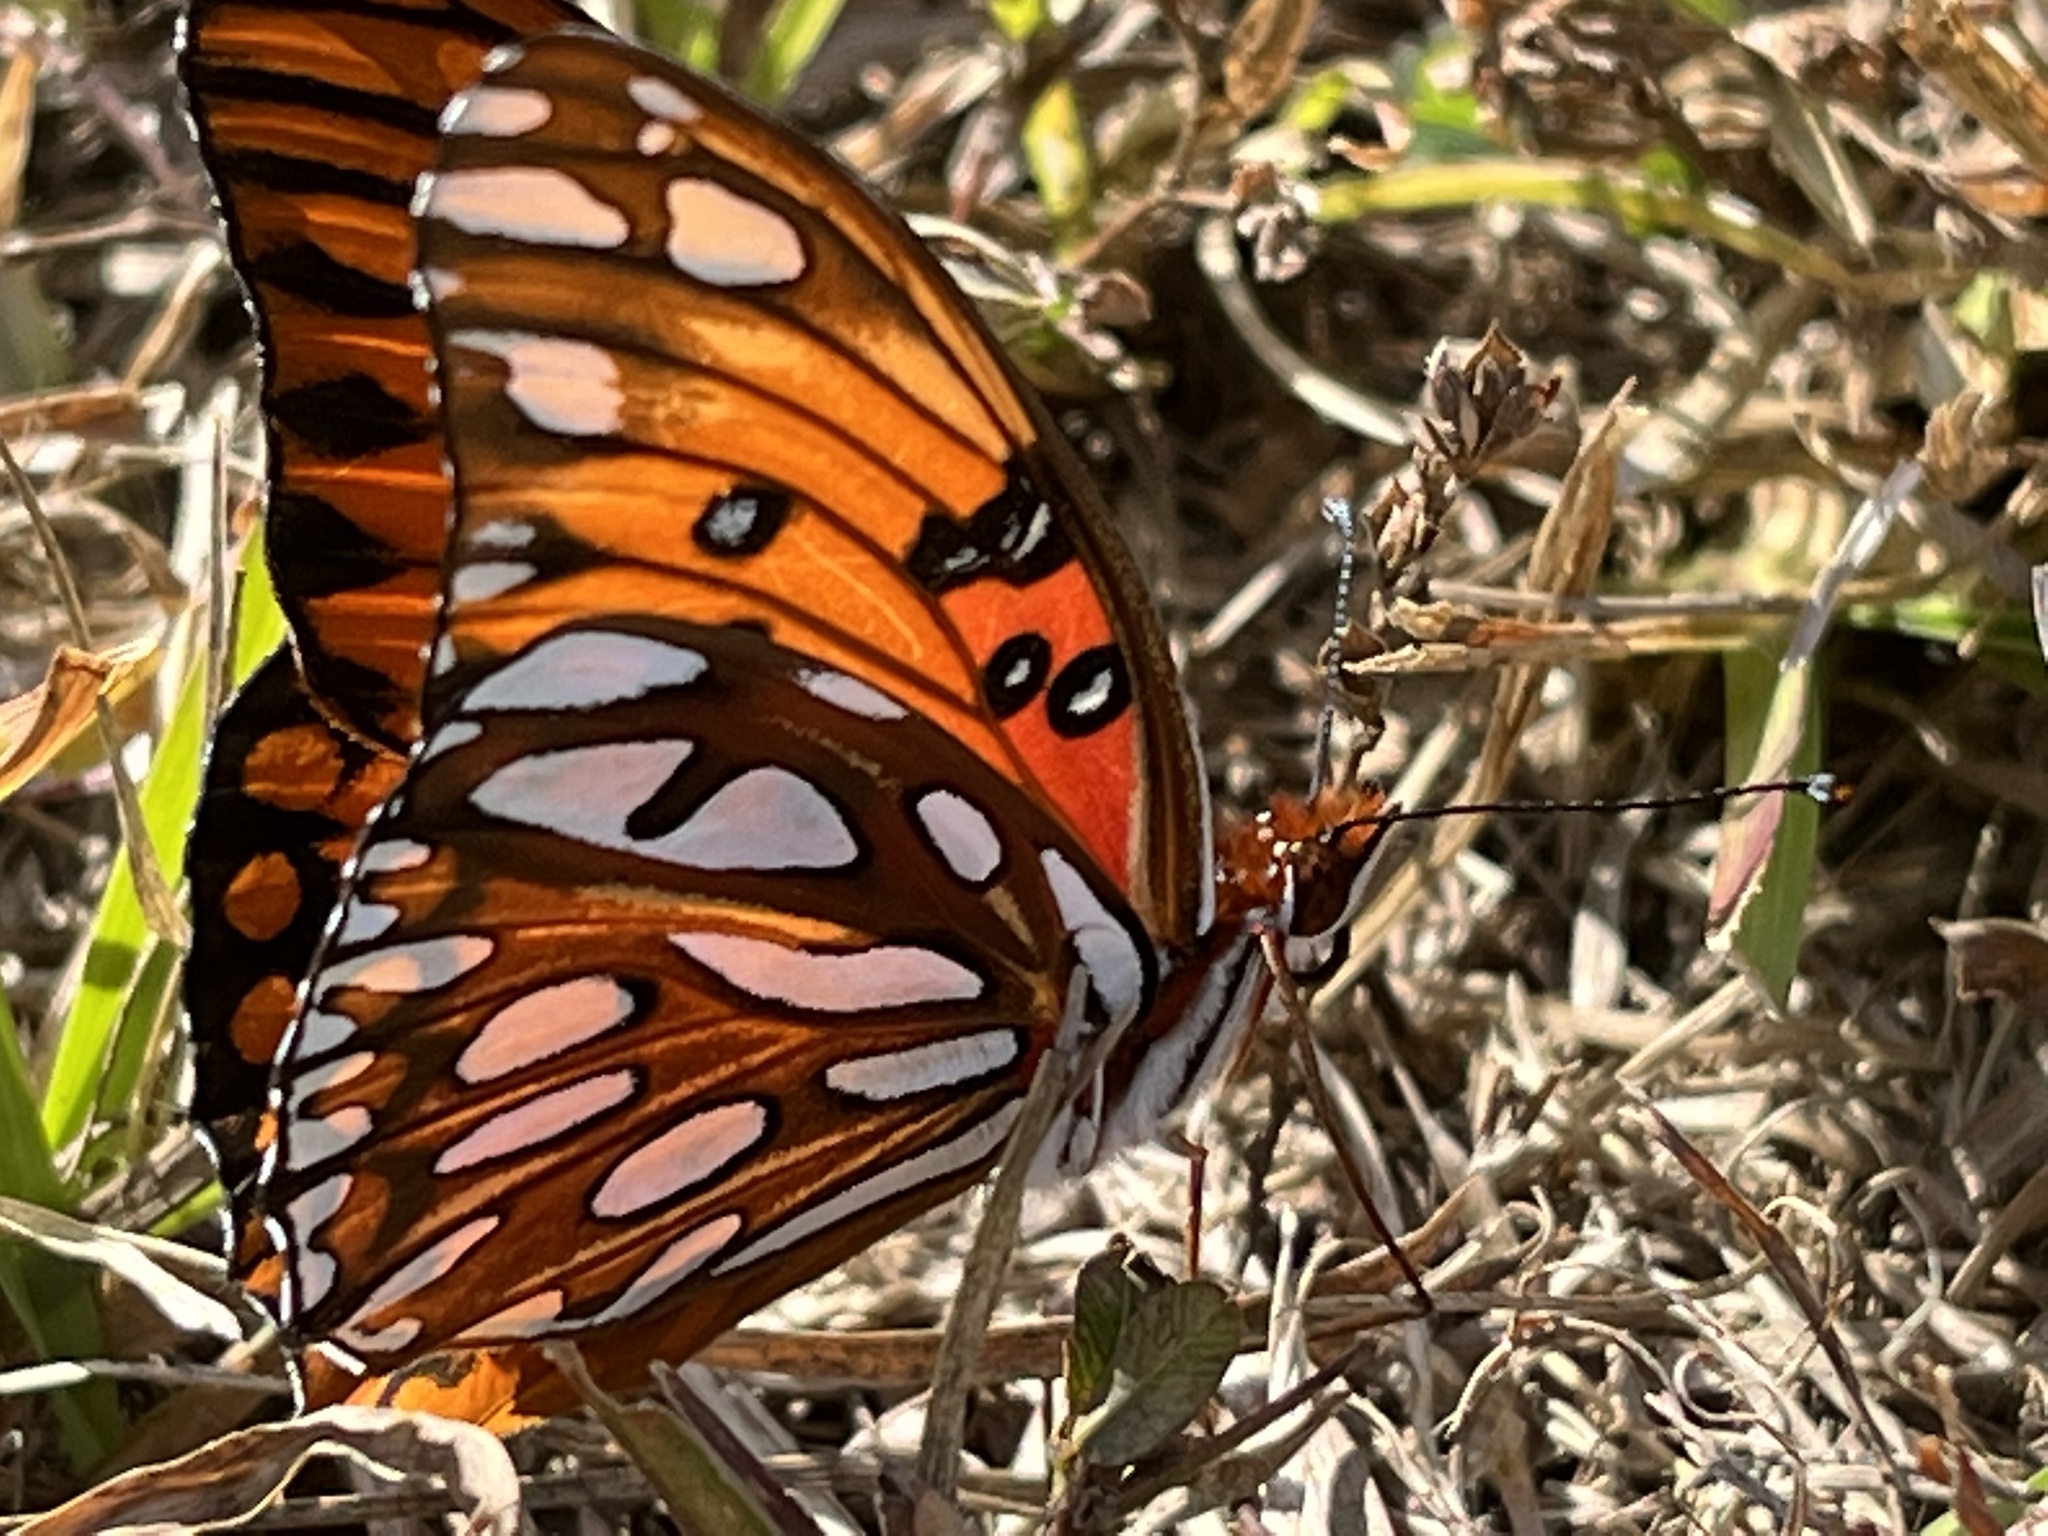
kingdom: Animalia
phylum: Arthropoda
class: Insecta
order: Lepidoptera
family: Nymphalidae
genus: Dione
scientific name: Dione vanillae
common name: Gulf fritillary
